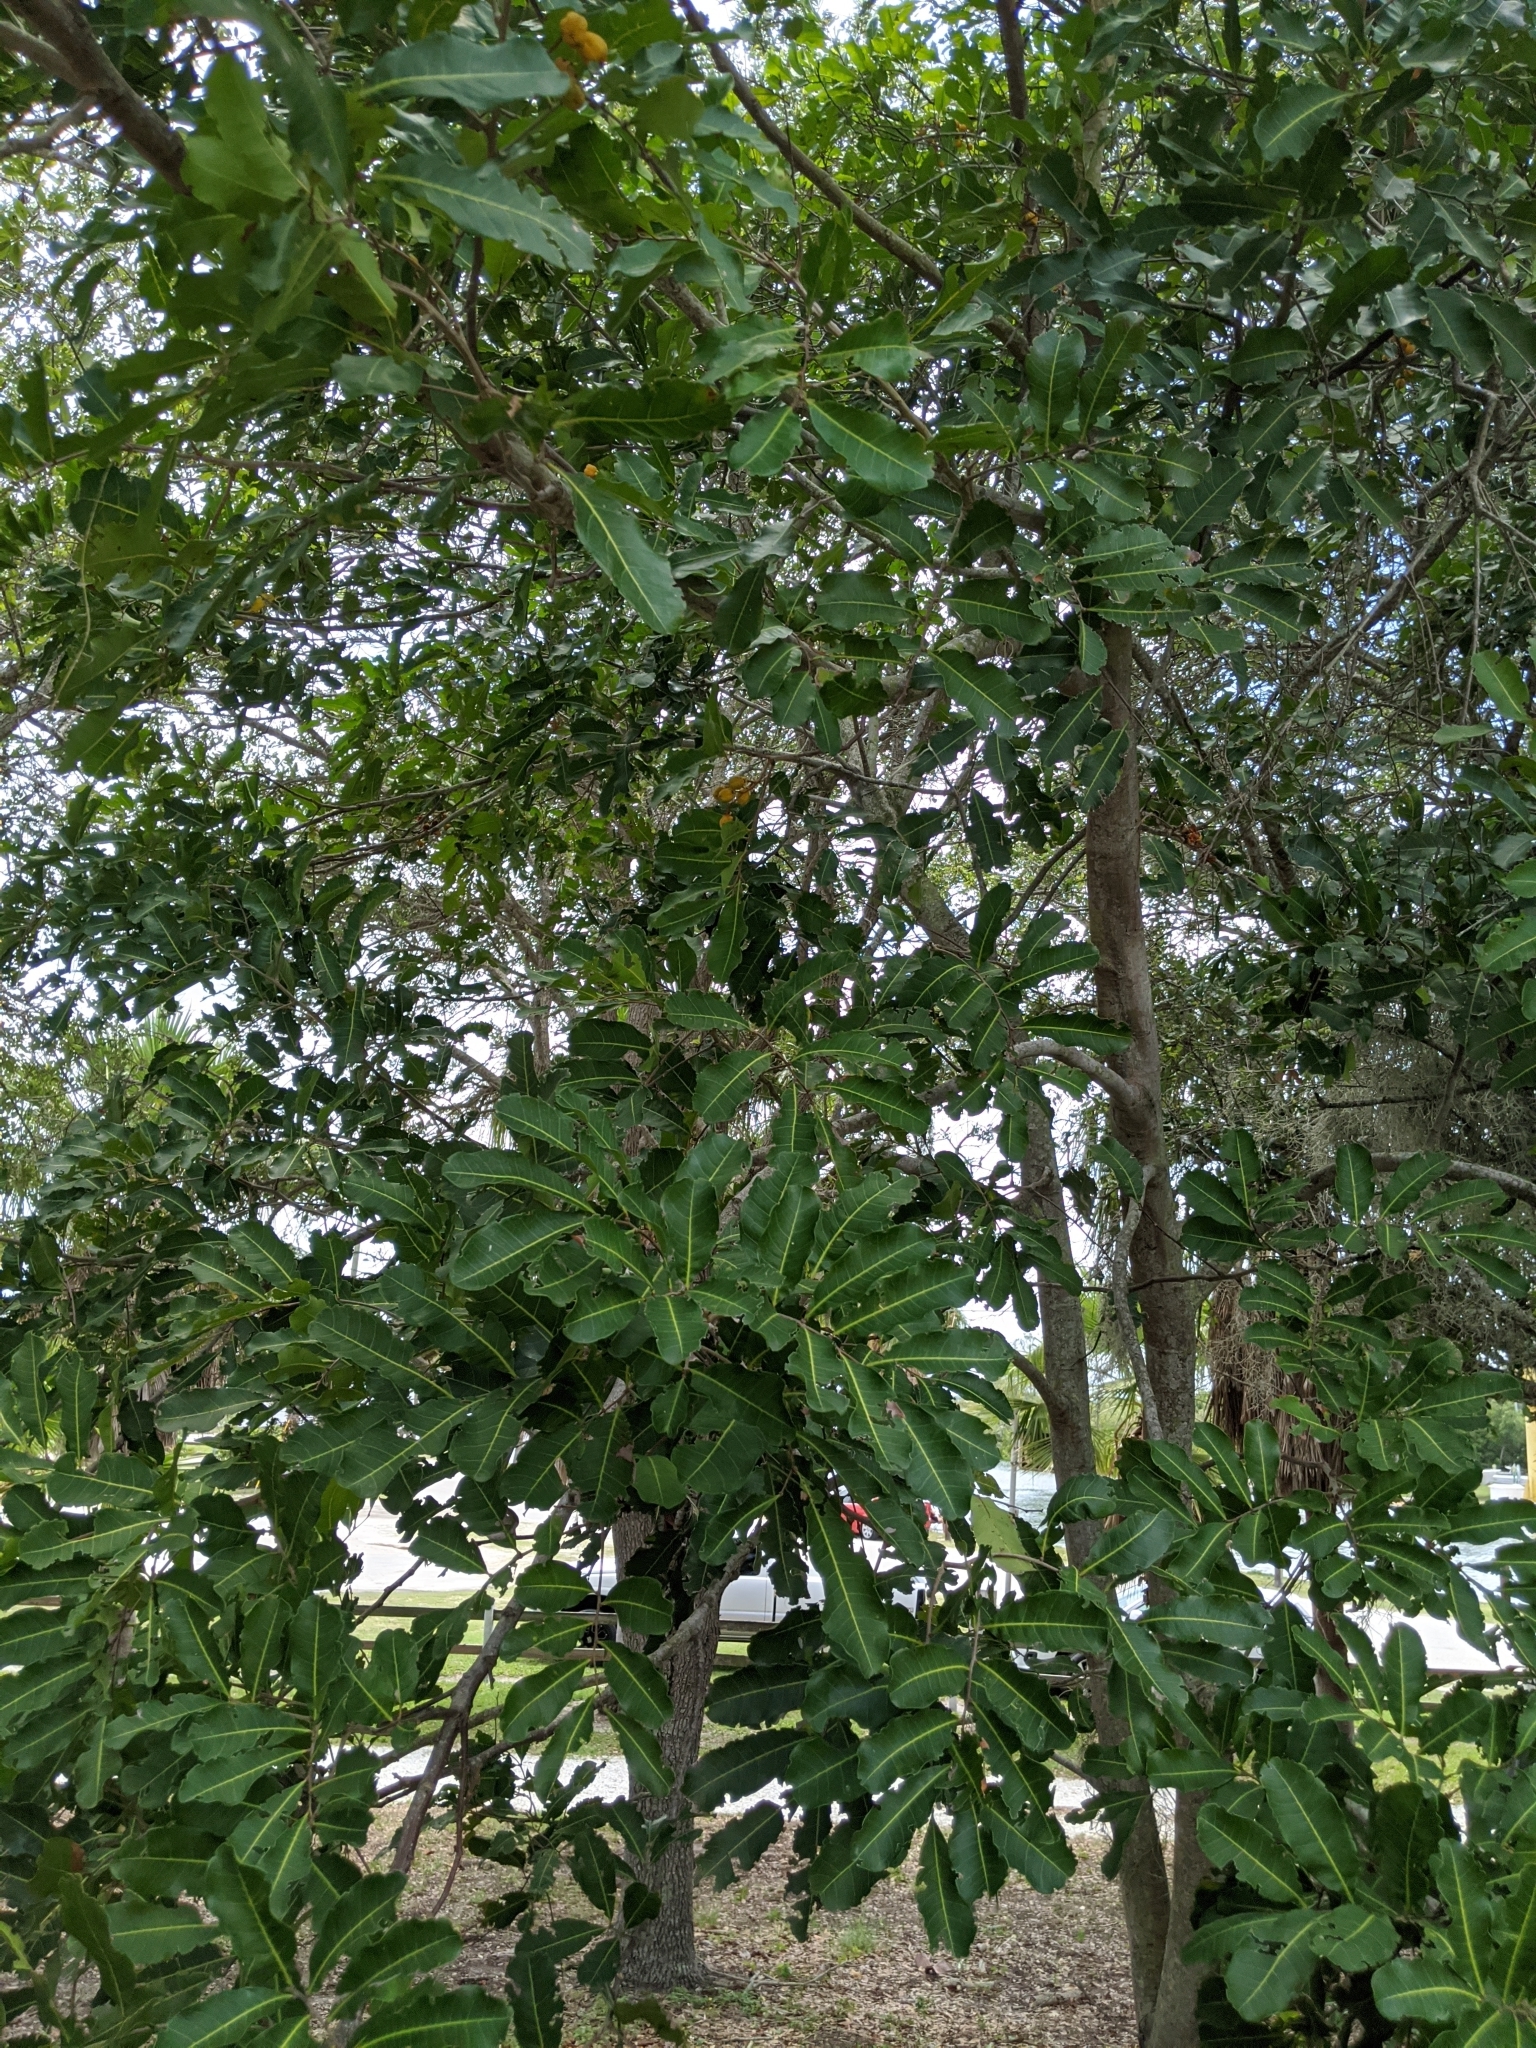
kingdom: Plantae
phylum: Tracheophyta
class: Magnoliopsida
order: Sapindales
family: Sapindaceae
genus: Cupaniopsis
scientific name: Cupaniopsis anacardioides
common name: Carrotwood
